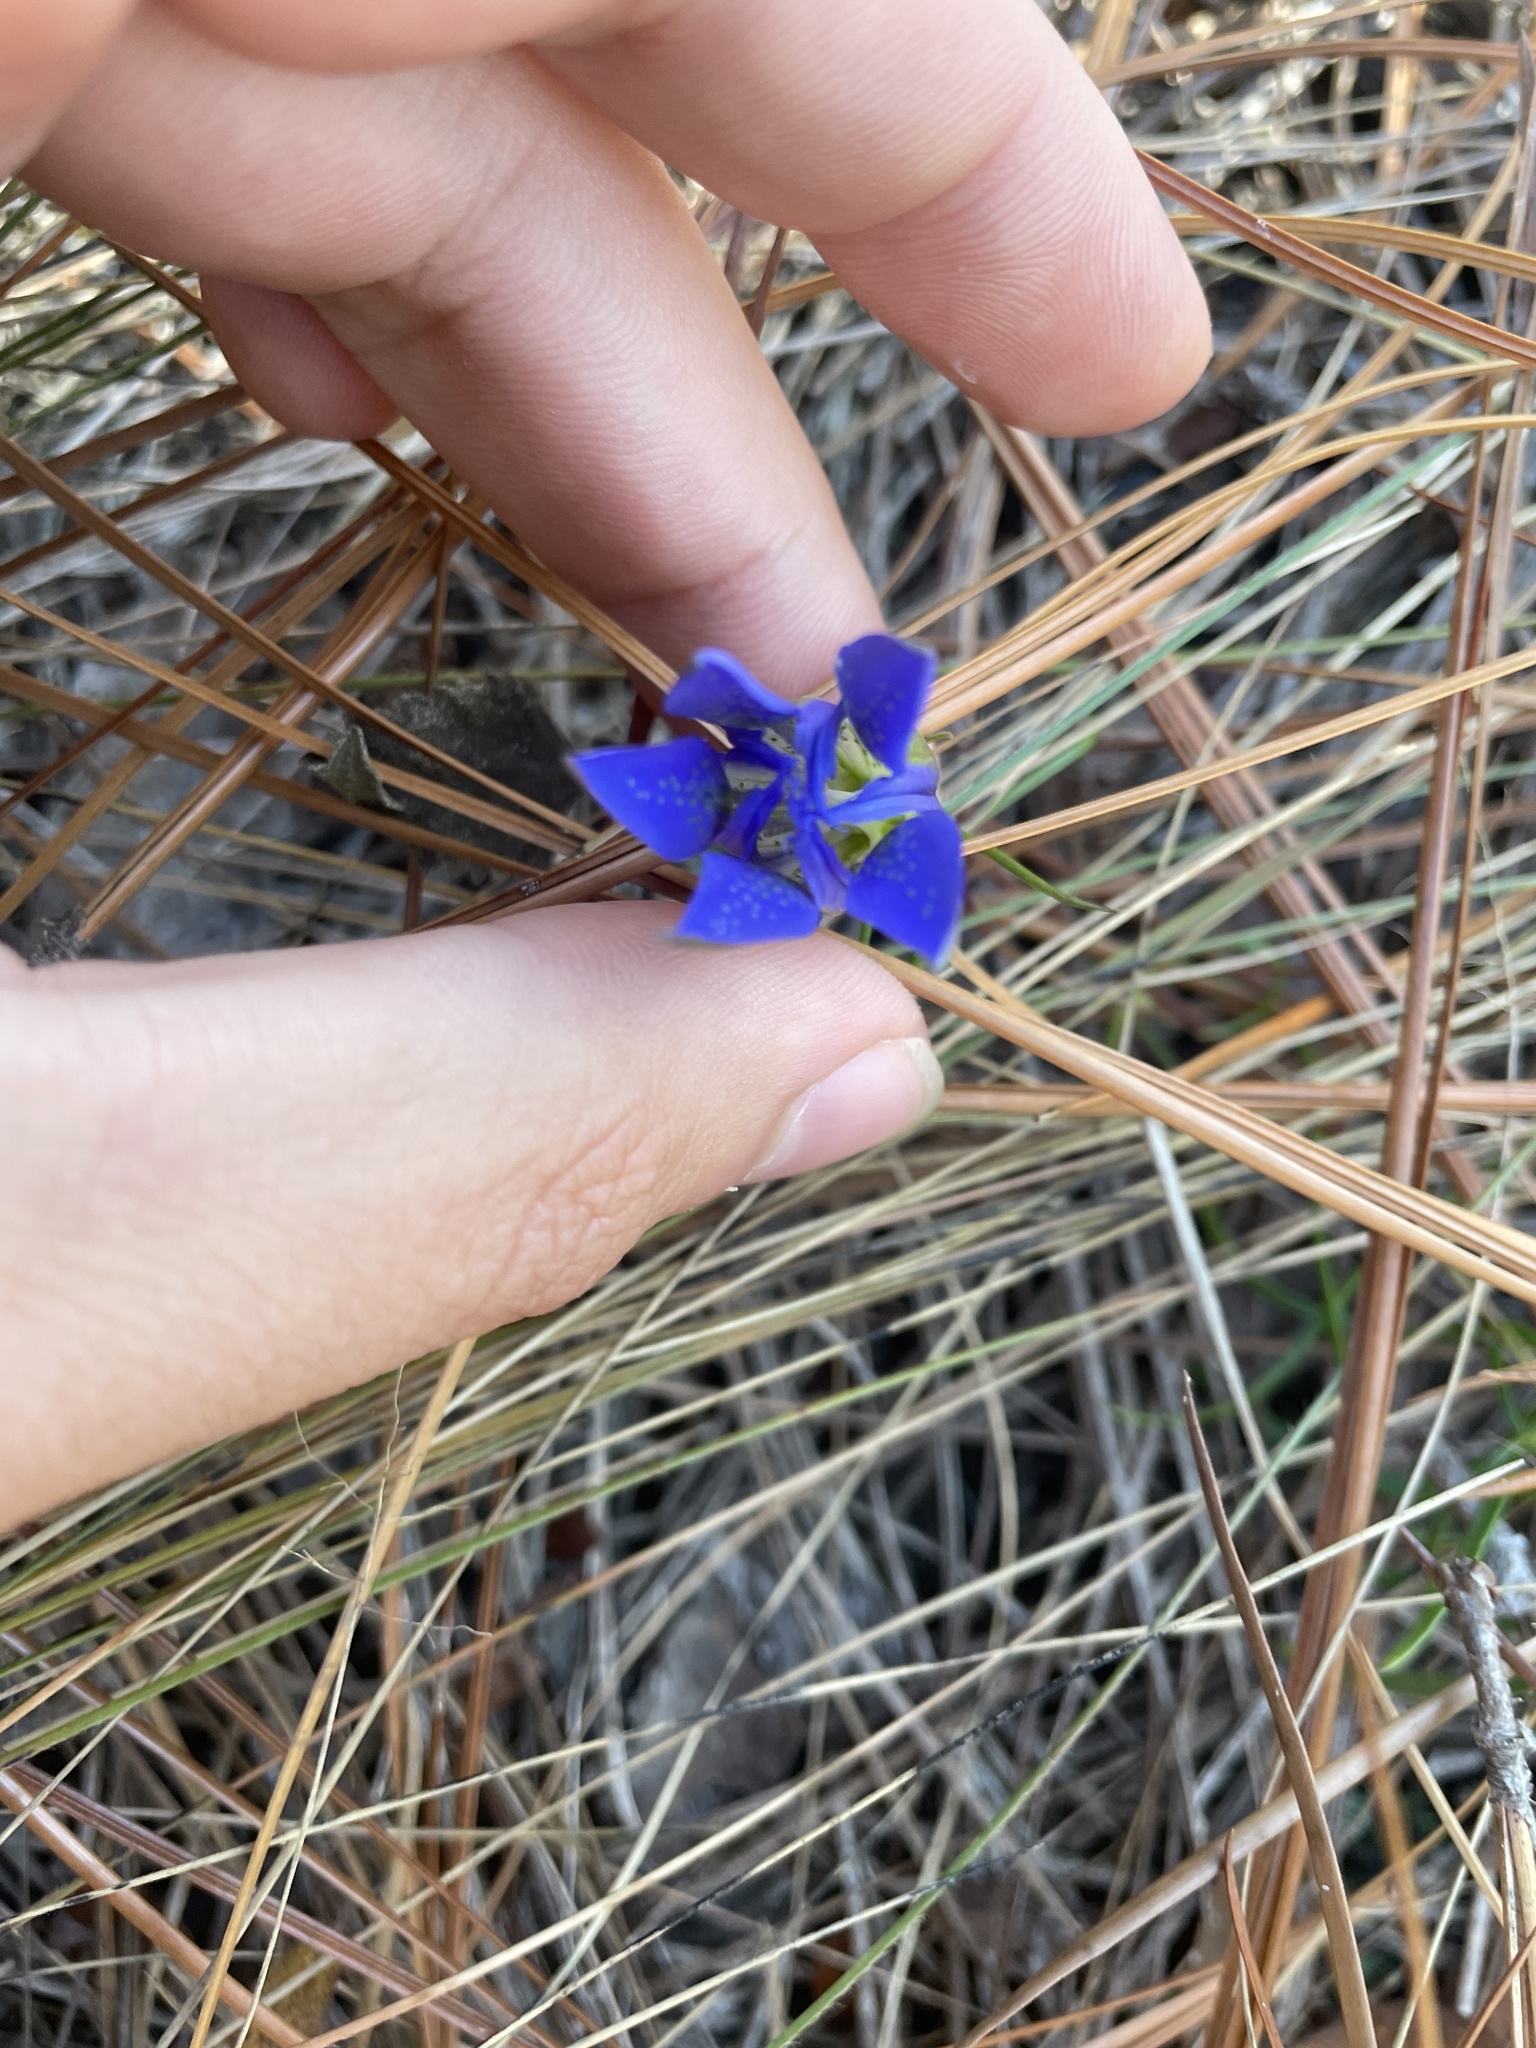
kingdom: Plantae
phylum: Tracheophyta
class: Magnoliopsida
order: Gentianales
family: Gentianaceae
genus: Gentiana
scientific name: Gentiana autumnalis
